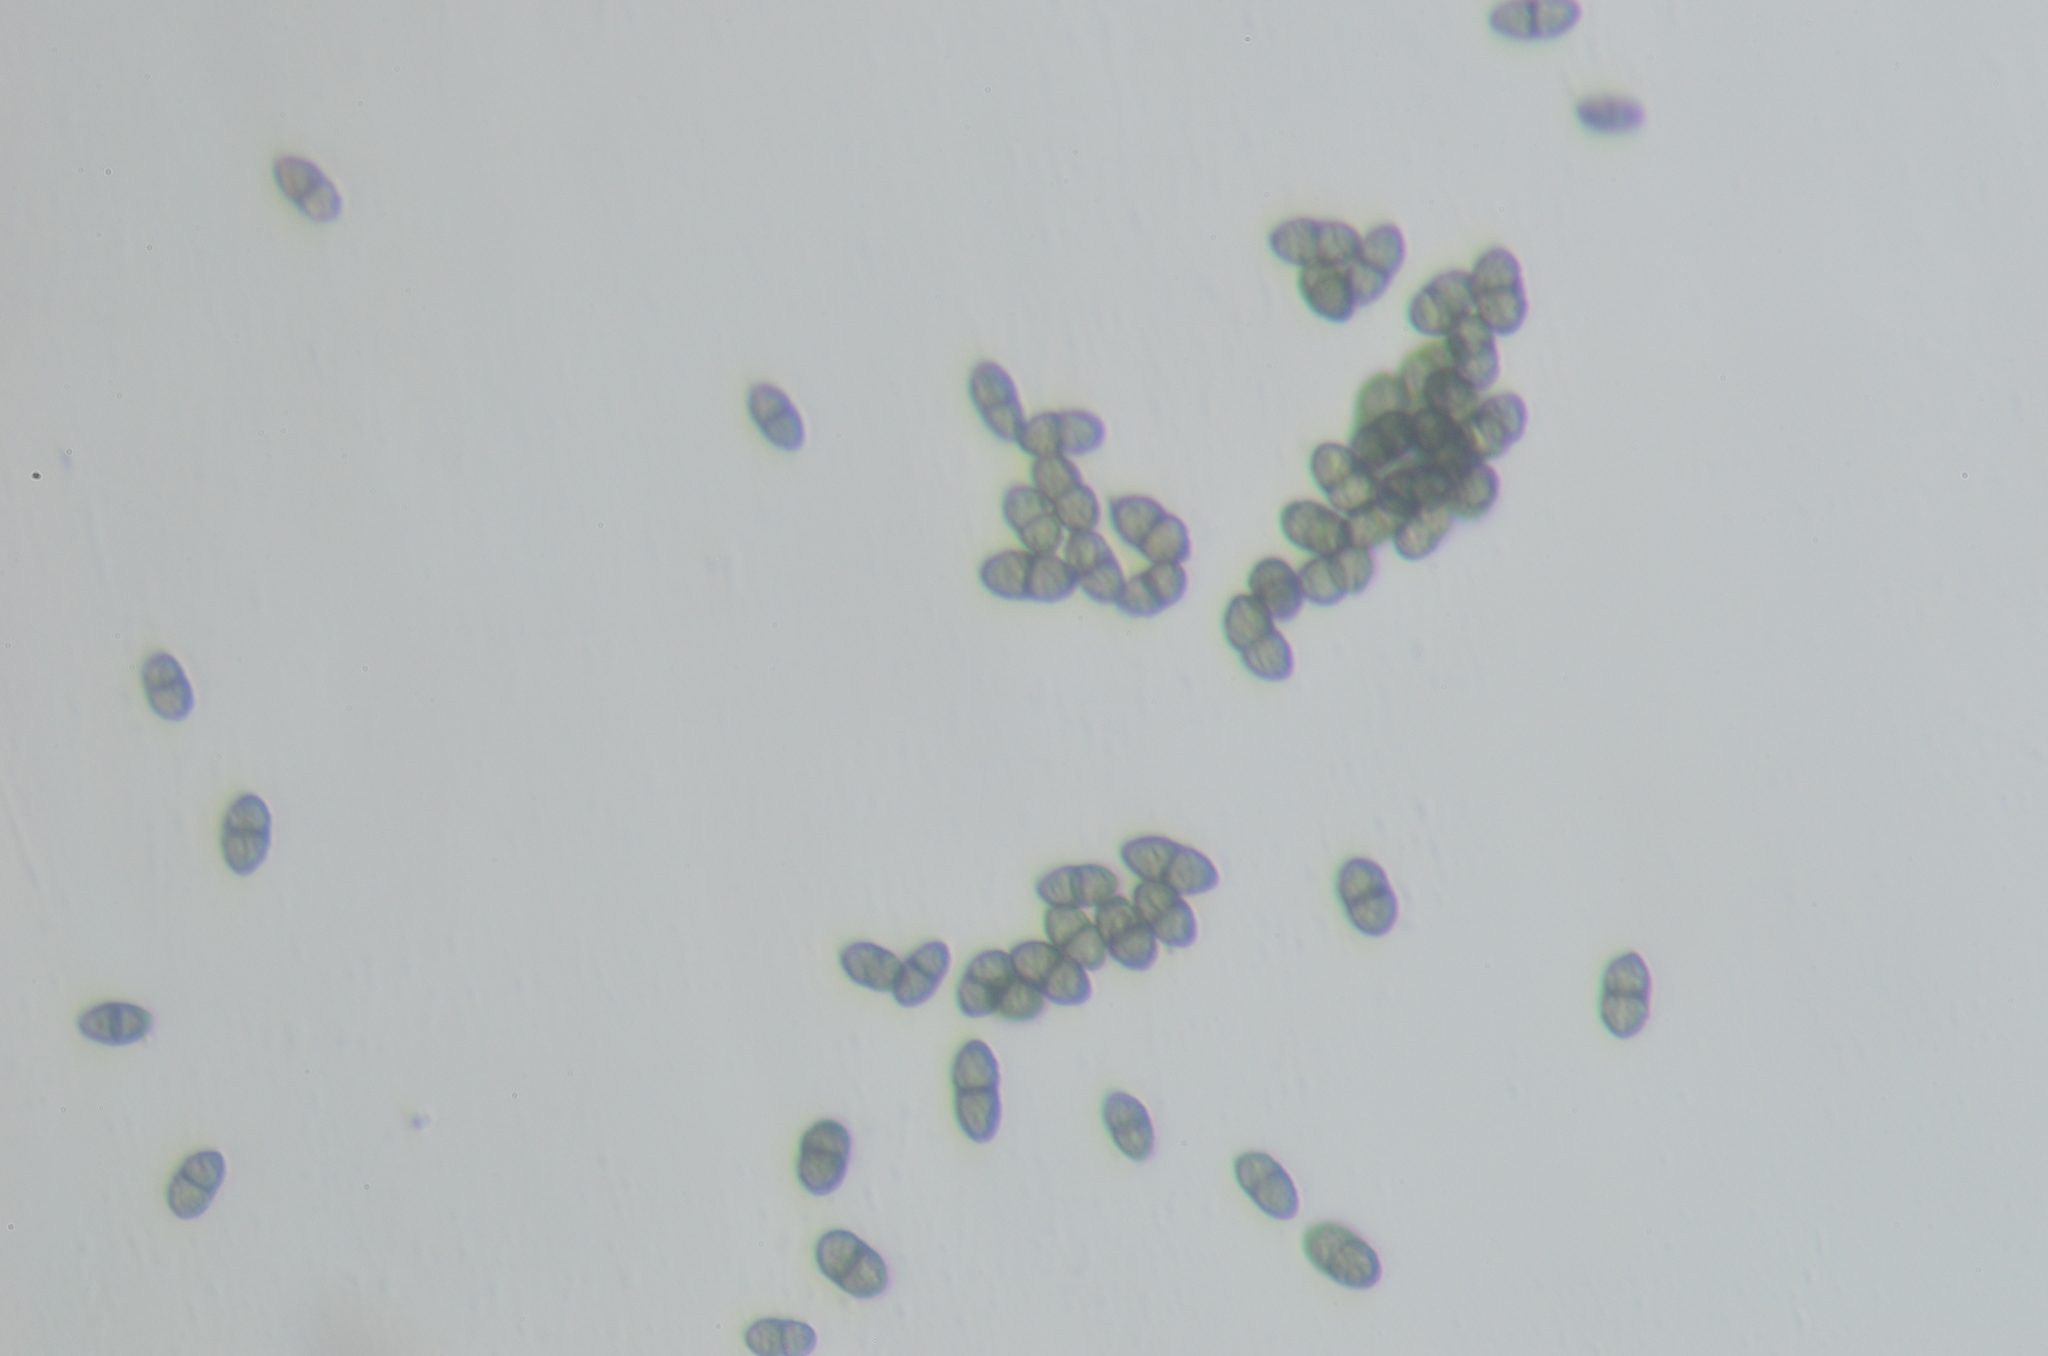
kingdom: Fungi
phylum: Ascomycota
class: Lecanoromycetes
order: Caliciales
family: Caliciaceae
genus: Calicium
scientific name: Calicium glaucellum
